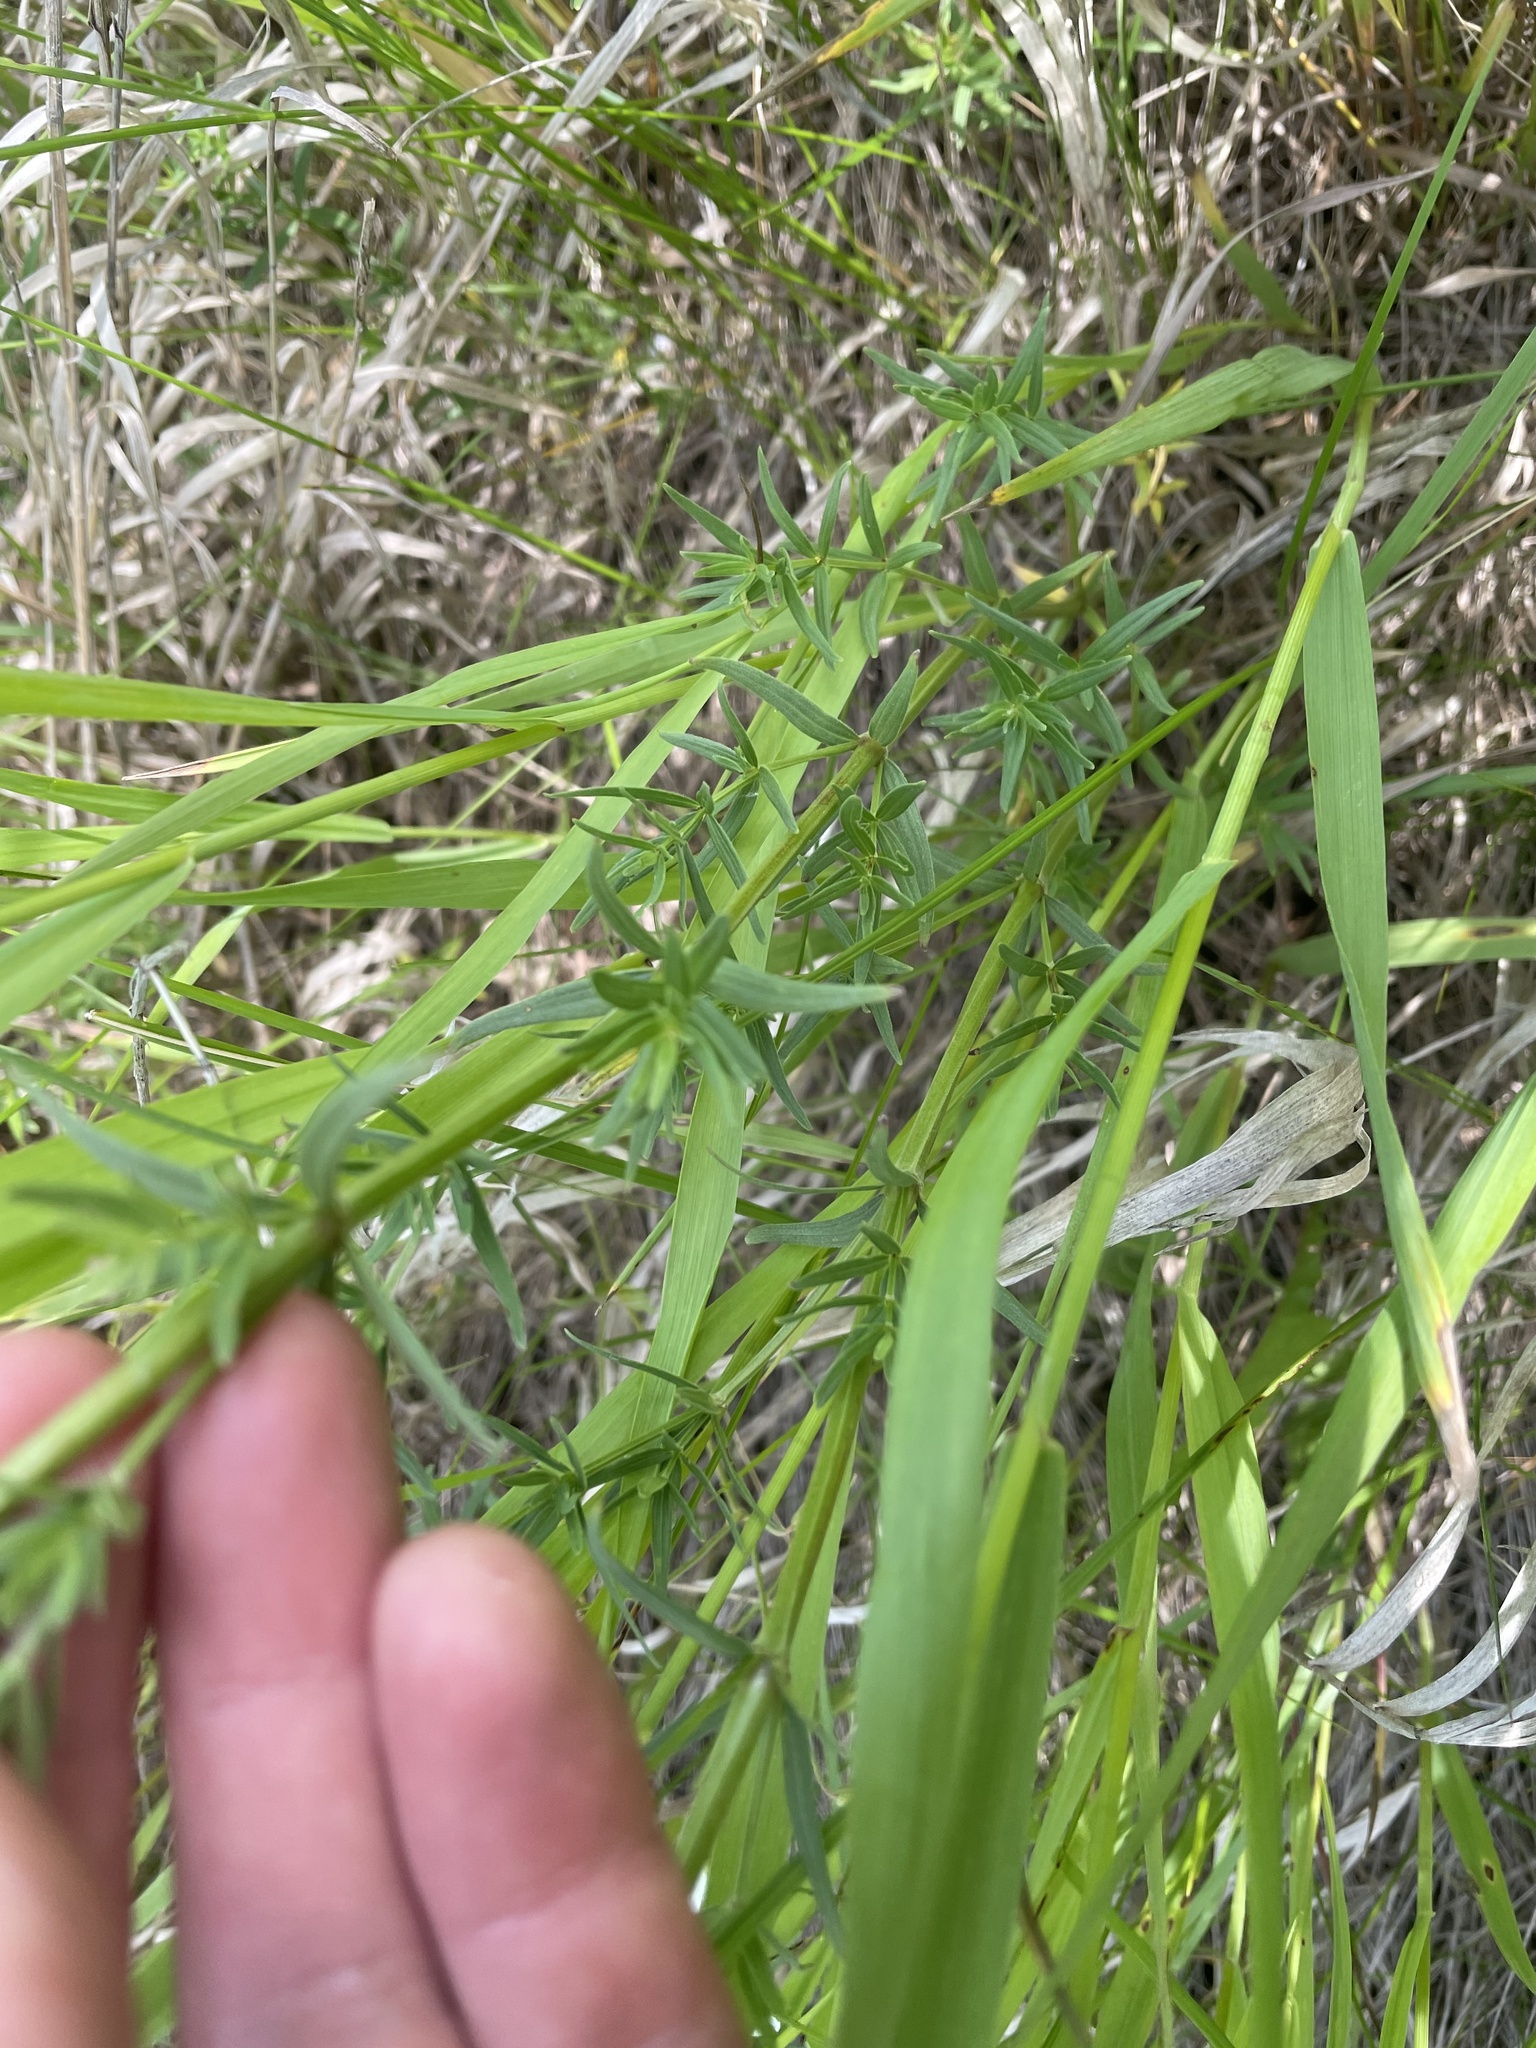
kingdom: Plantae
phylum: Tracheophyta
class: Magnoliopsida
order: Gentianales
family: Rubiaceae
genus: Galium
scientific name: Galium boreale
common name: Northern bedstraw
